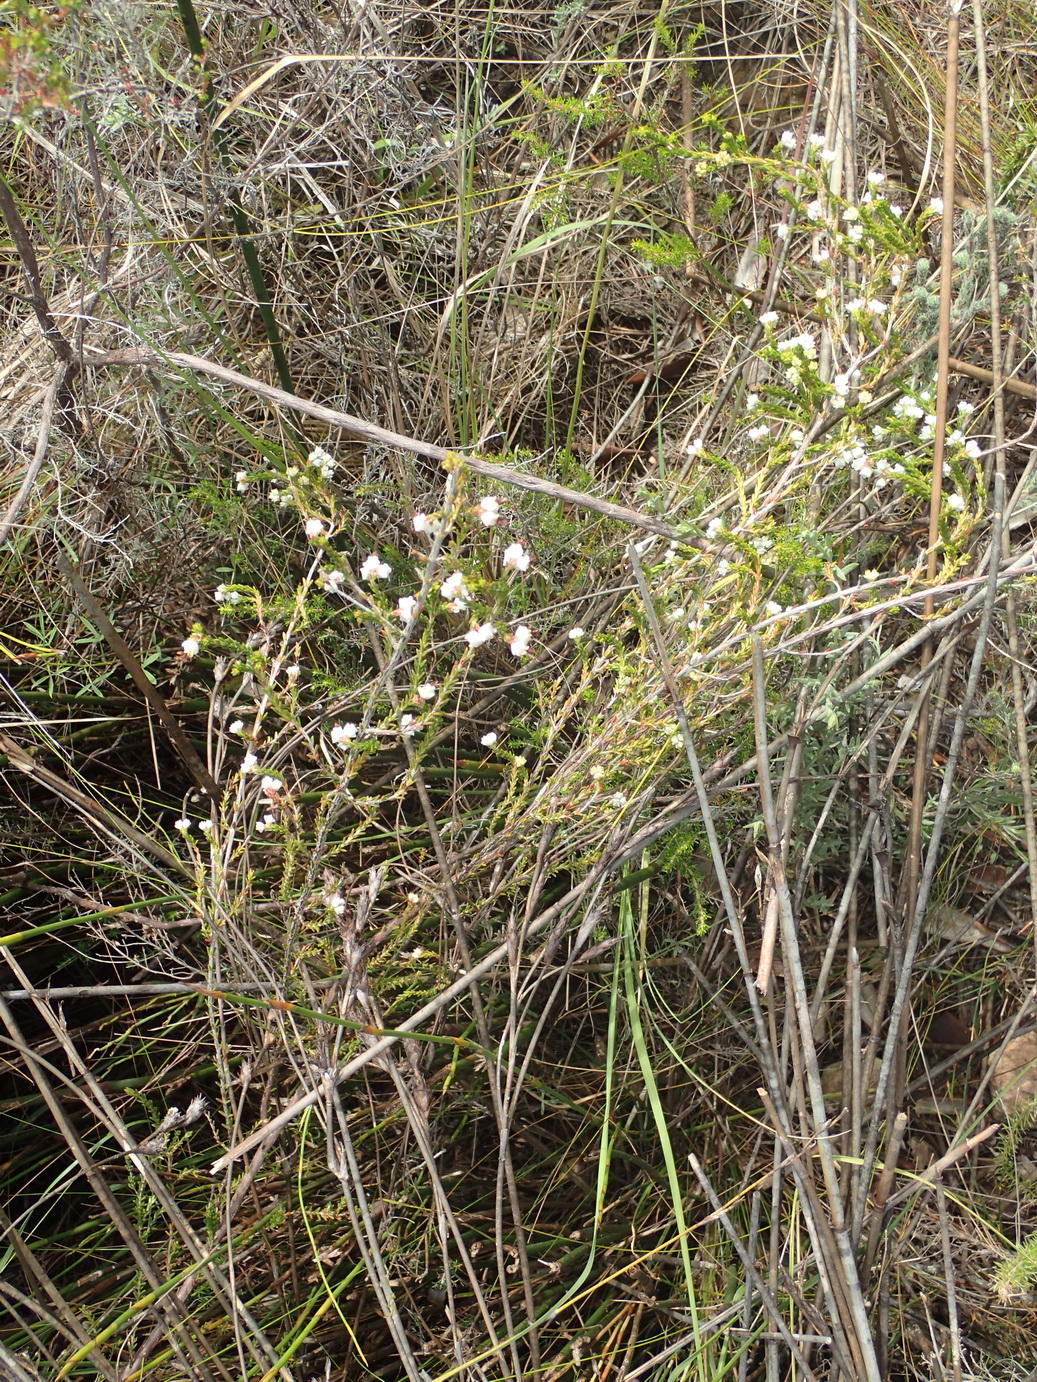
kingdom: Plantae
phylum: Tracheophyta
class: Magnoliopsida
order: Ericales
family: Ericaceae
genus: Erica
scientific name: Erica triceps
